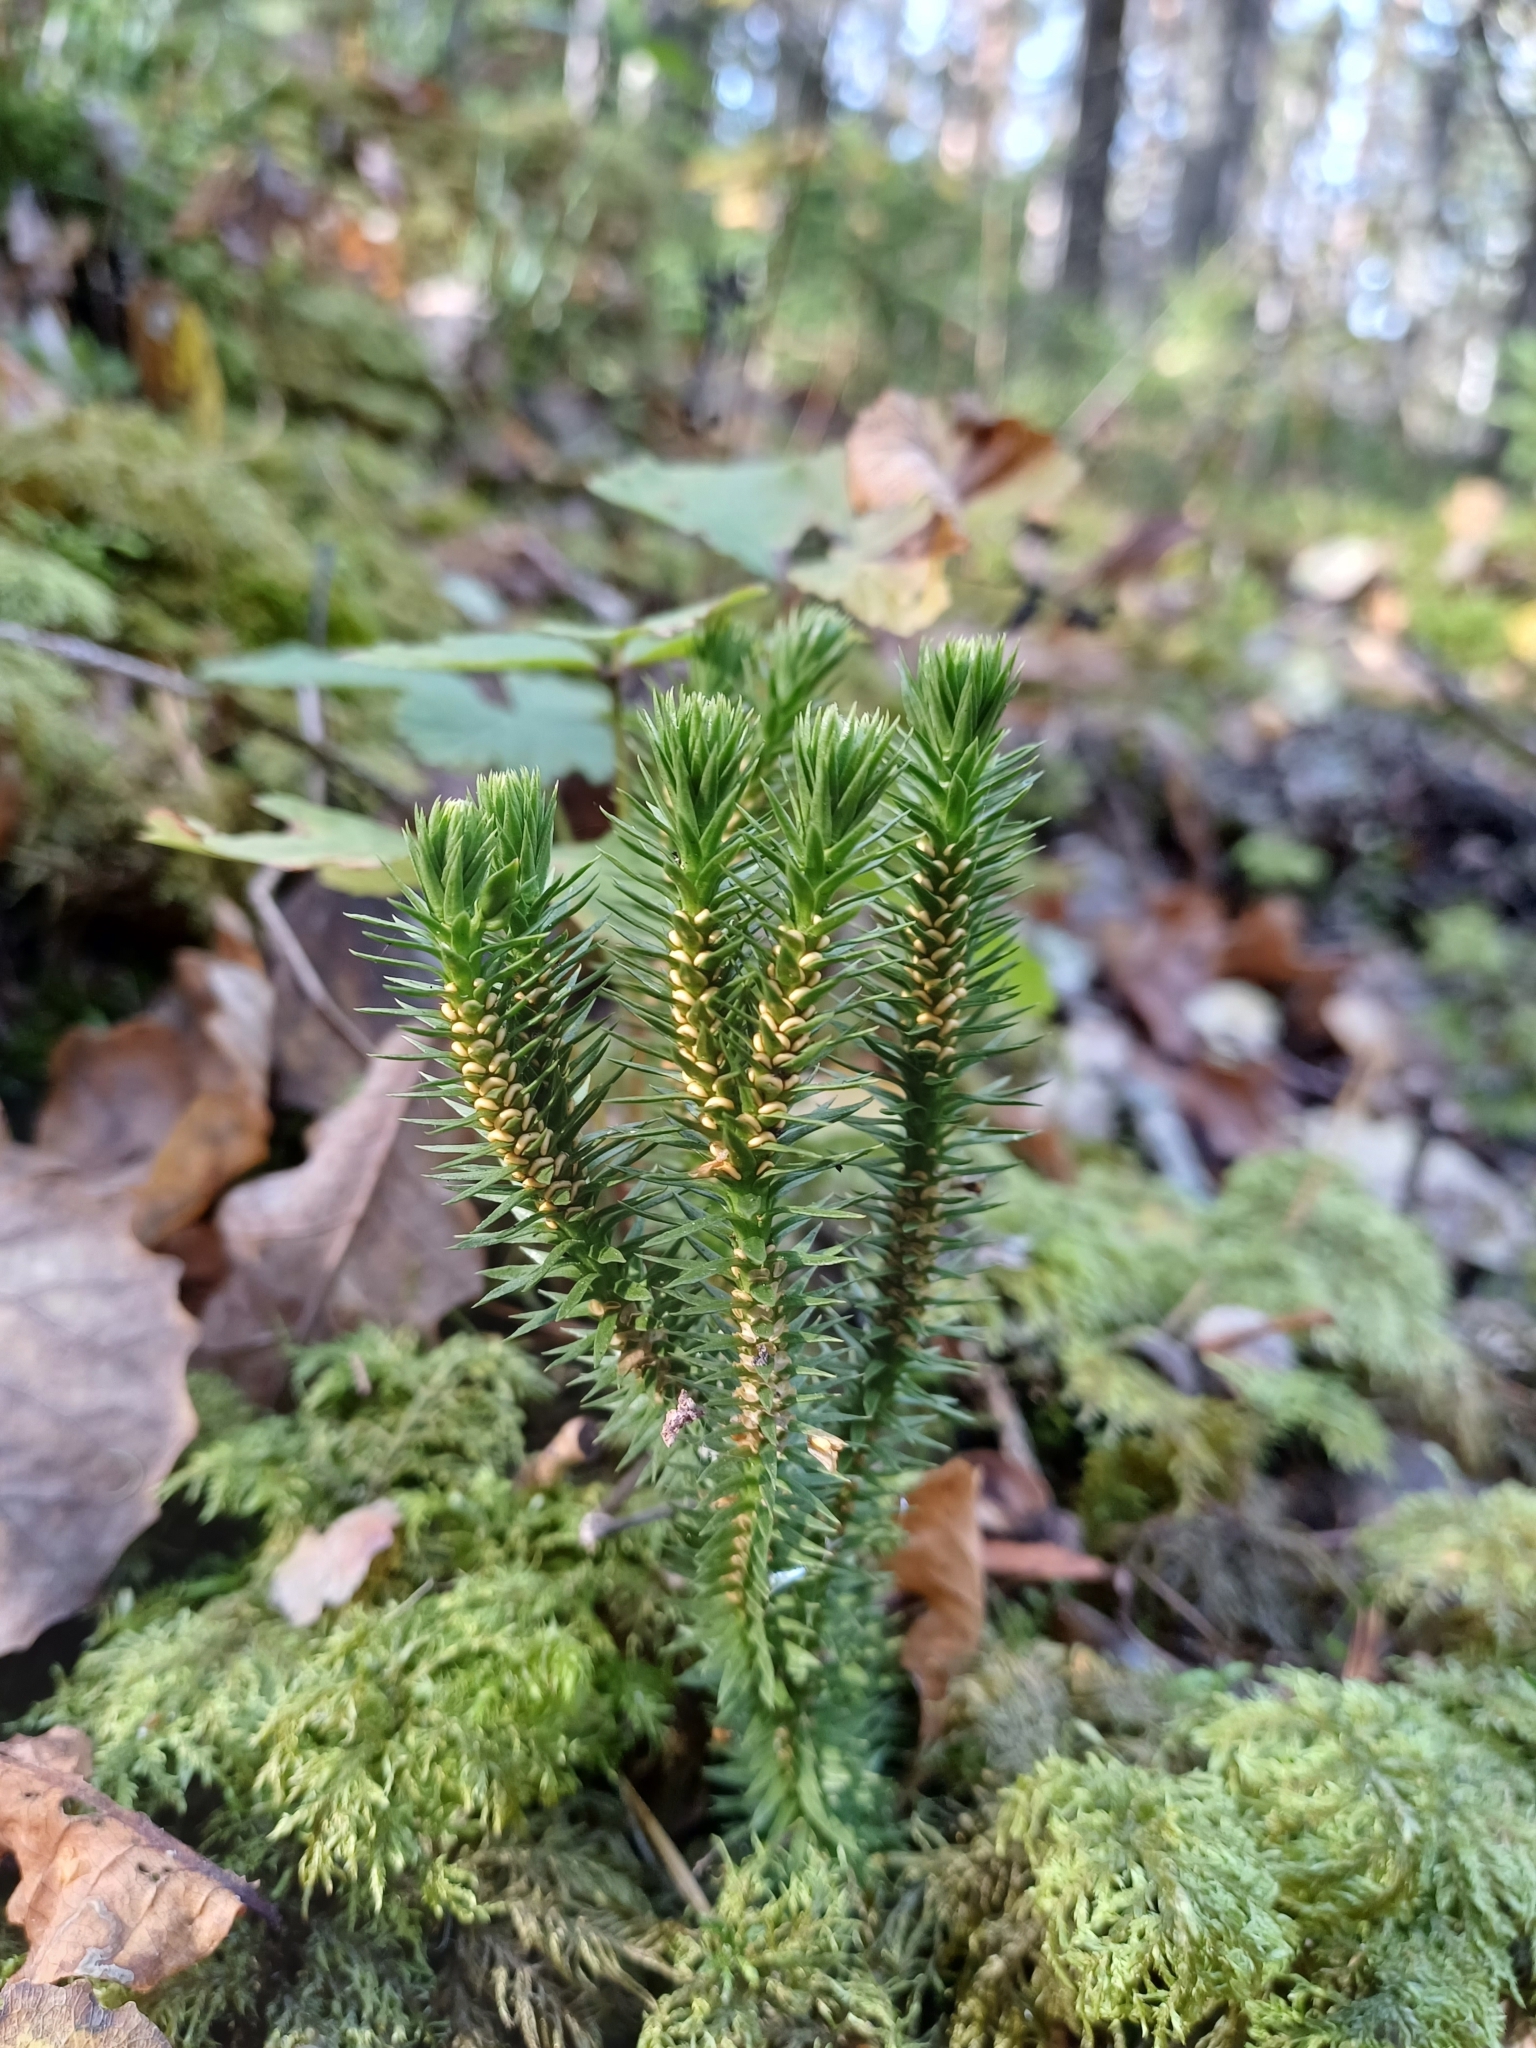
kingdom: Plantae
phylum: Tracheophyta
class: Lycopodiopsida
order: Lycopodiales
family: Lycopodiaceae
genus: Huperzia
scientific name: Huperzia selago
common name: Northern firmoss
